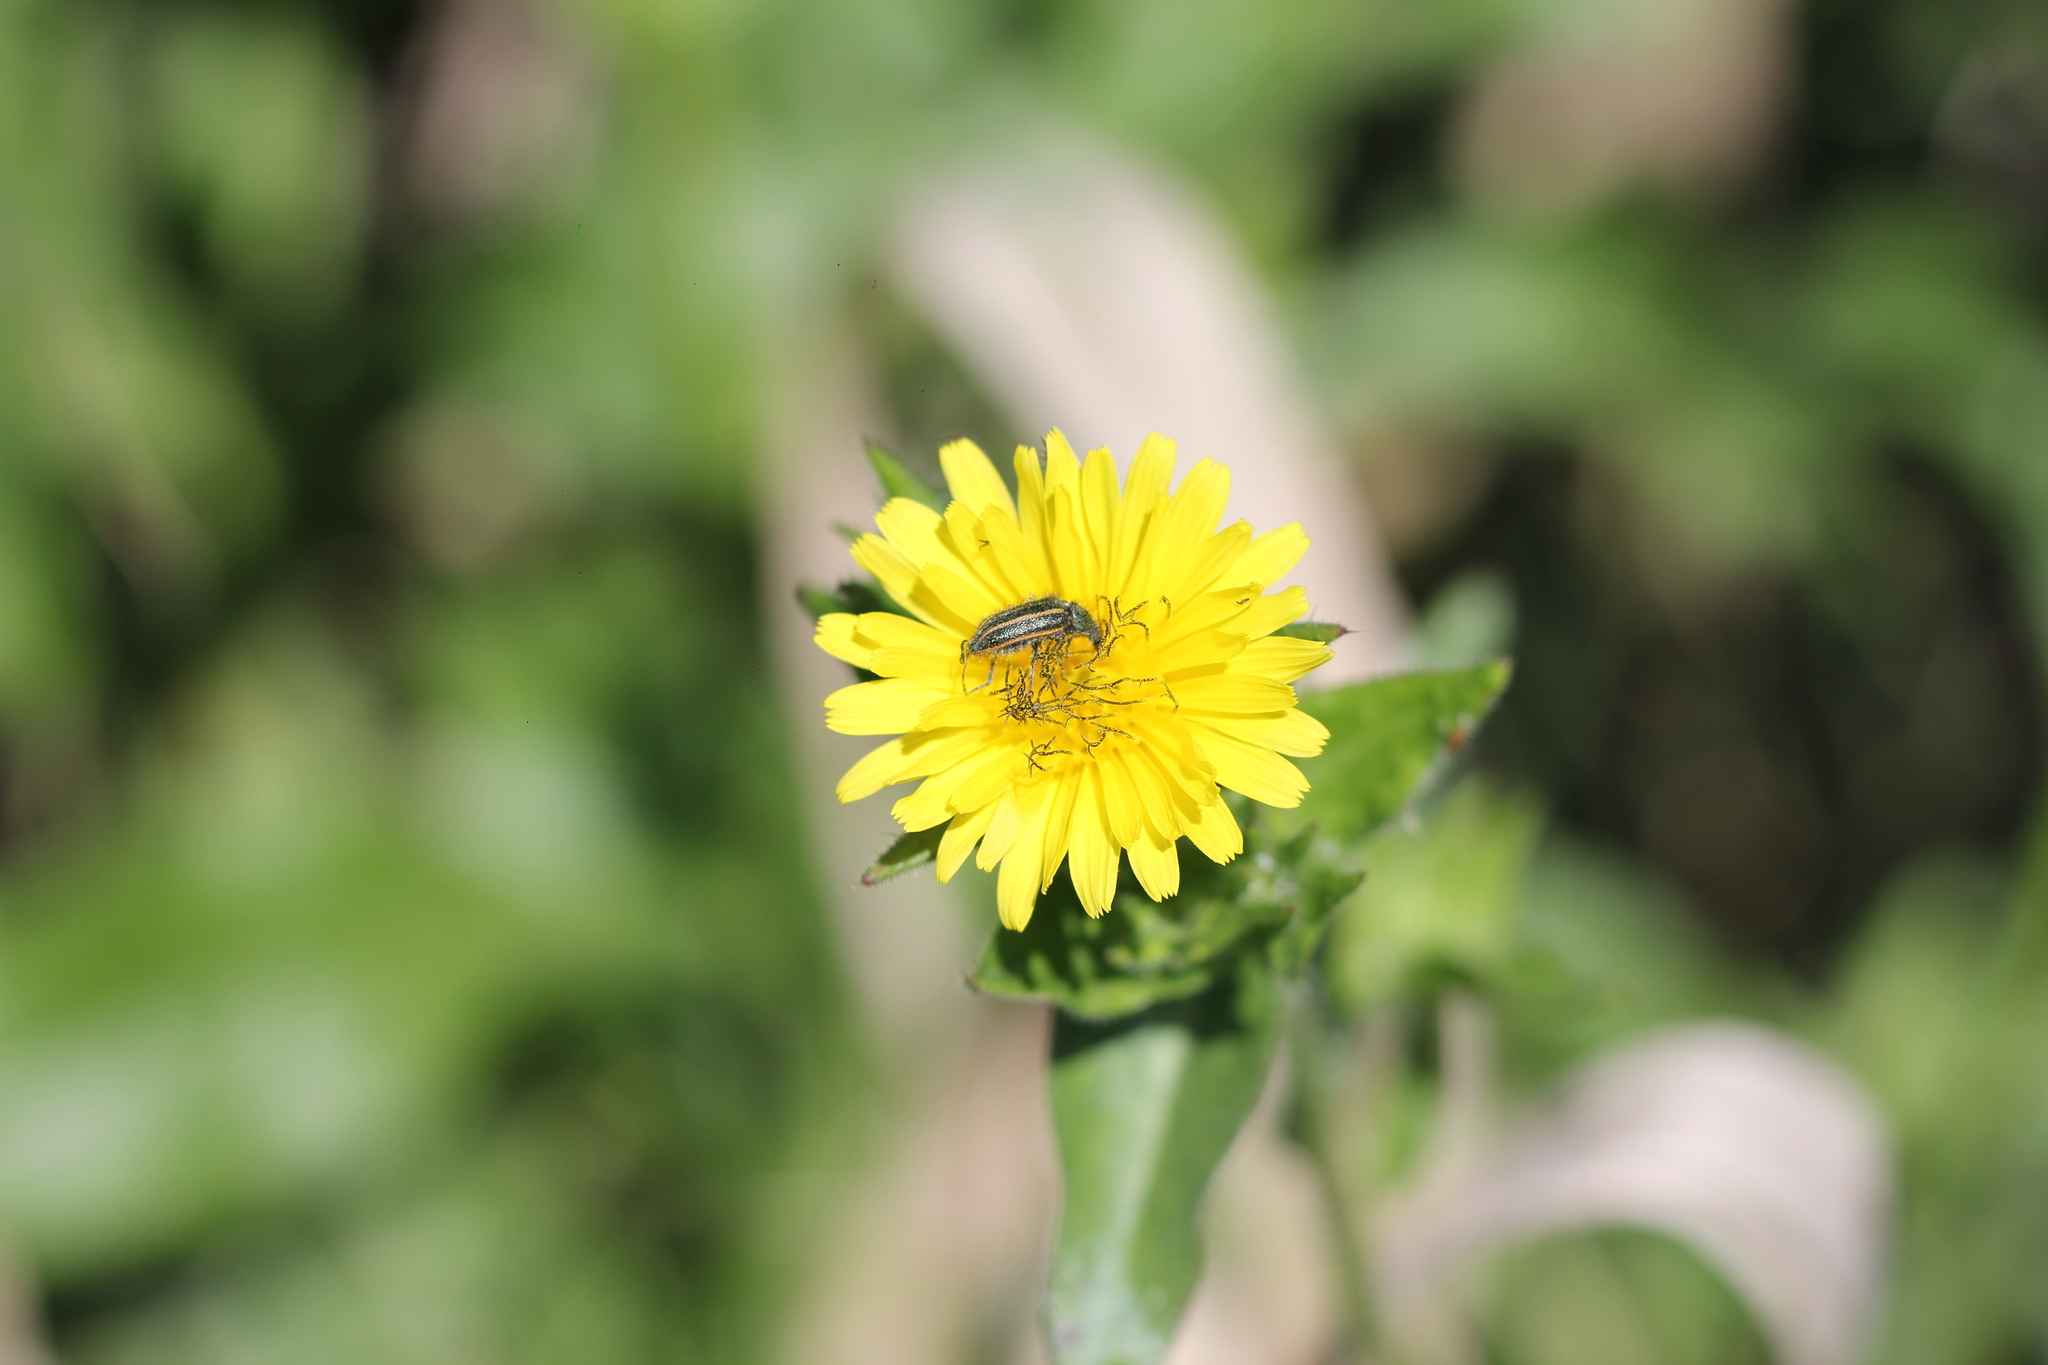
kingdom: Animalia
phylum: Arthropoda
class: Insecta
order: Coleoptera
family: Melyridae
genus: Astylus
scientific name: Astylus
